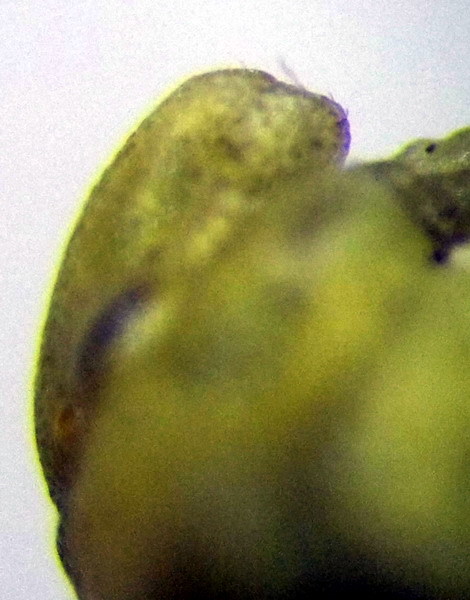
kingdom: Animalia
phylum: Arthropoda
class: Insecta
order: Hemiptera
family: Pentatomidae
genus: Tarisa
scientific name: Tarisa elevata
